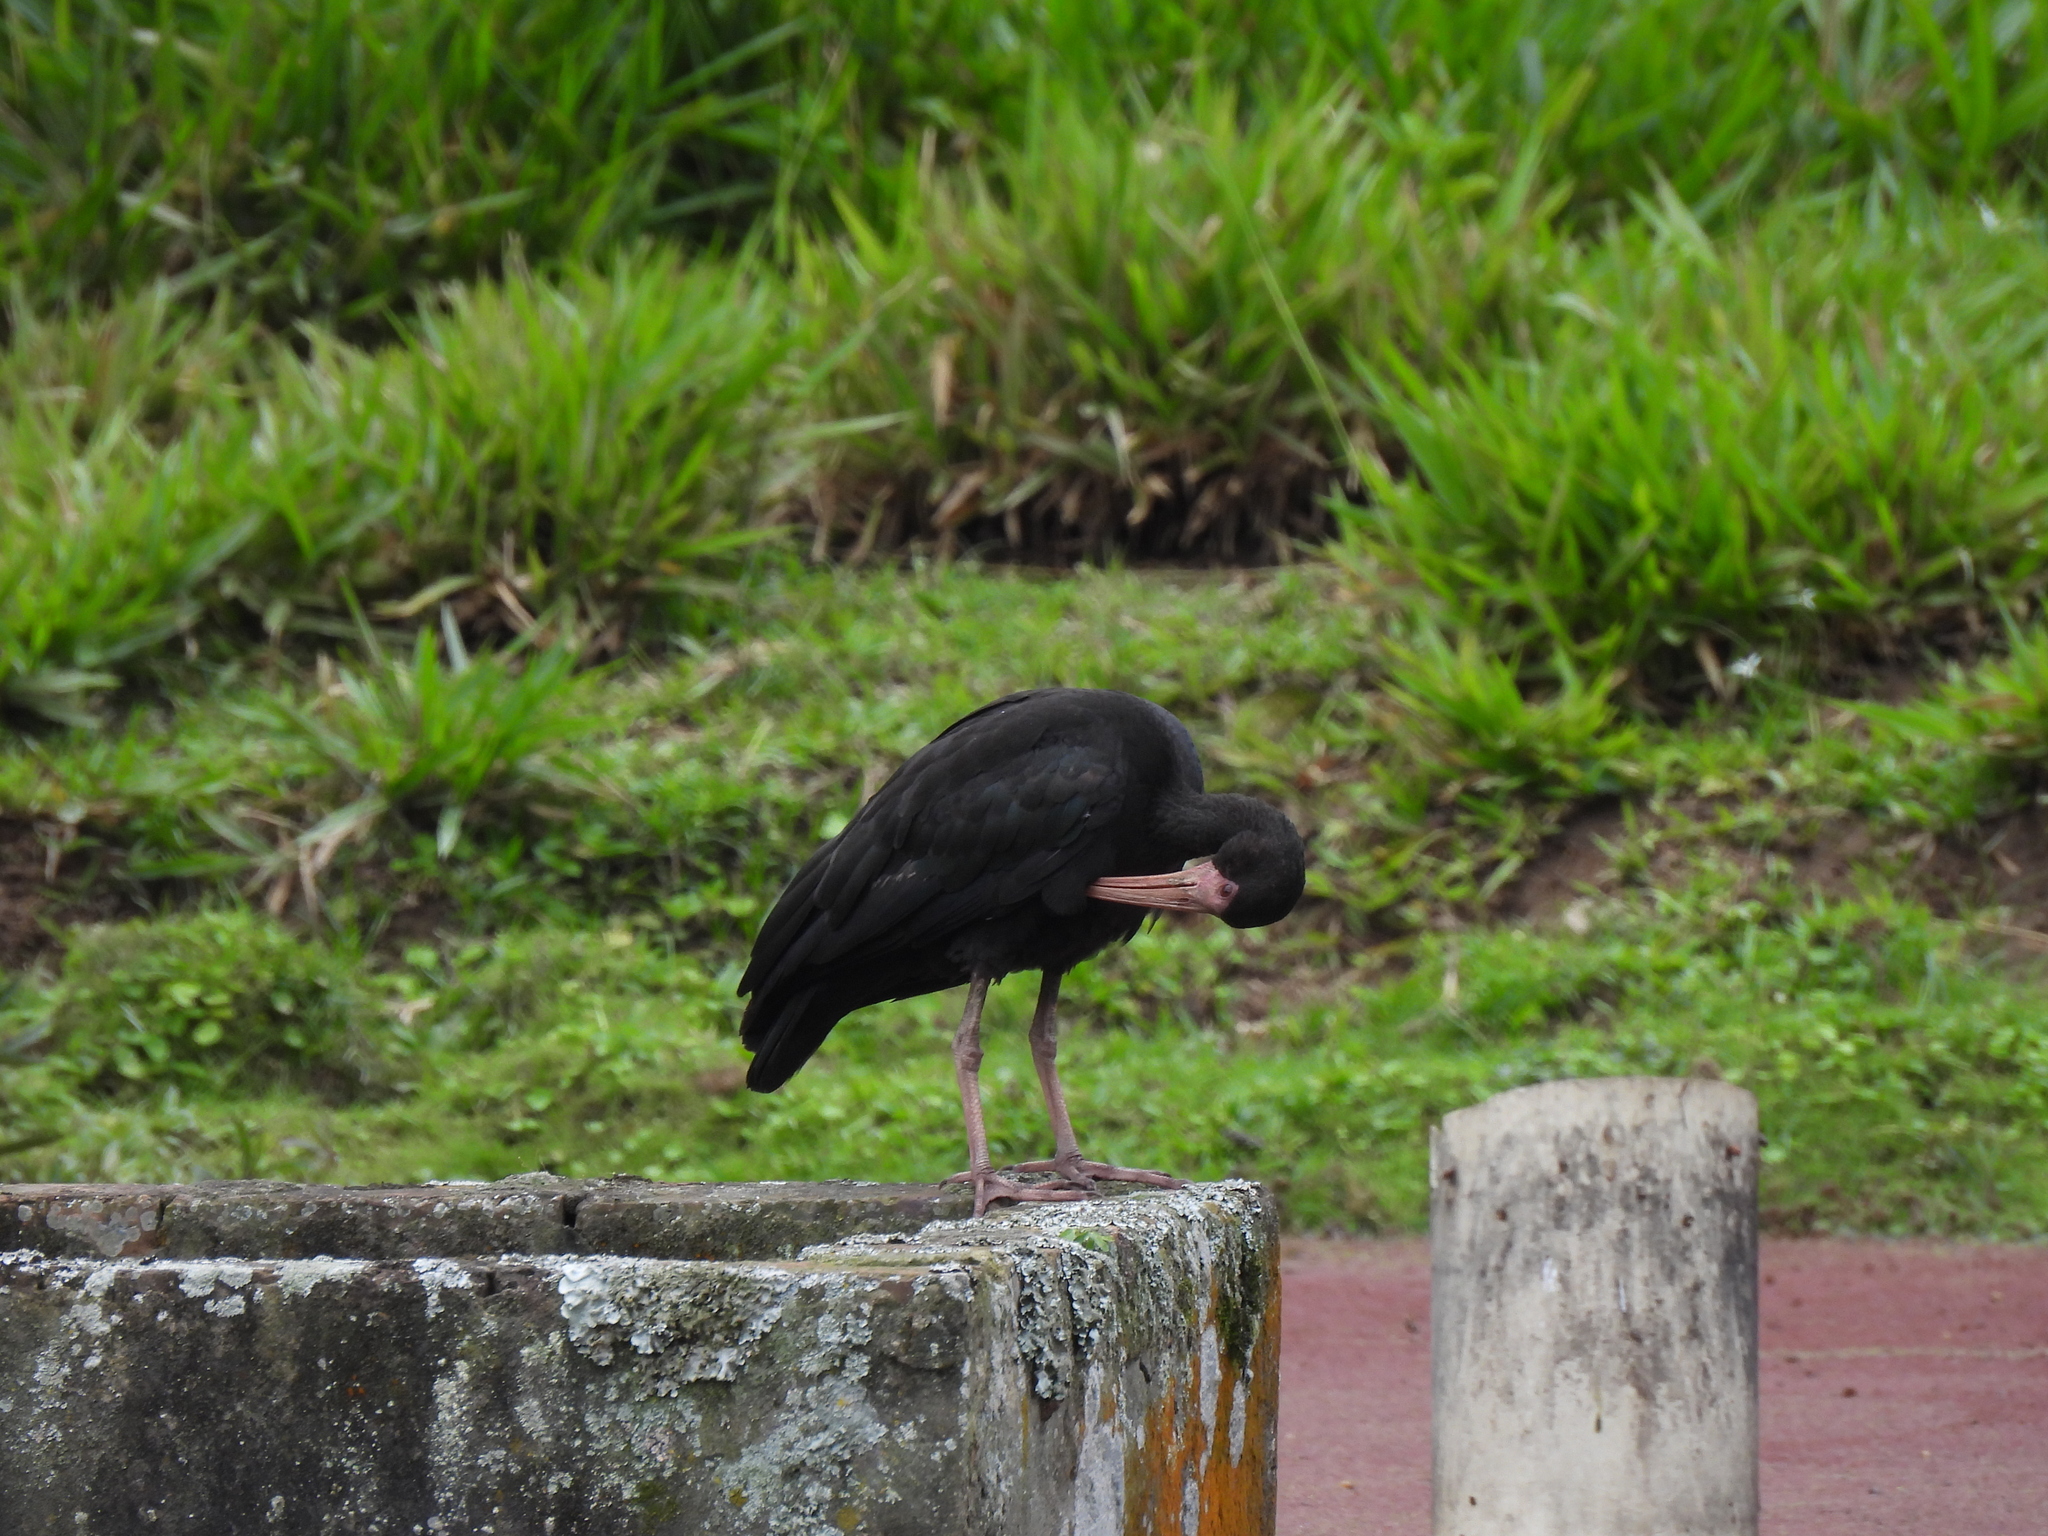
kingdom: Animalia
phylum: Chordata
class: Aves
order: Pelecaniformes
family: Threskiornithidae
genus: Phimosus
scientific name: Phimosus infuscatus
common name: Bare-faced ibis
